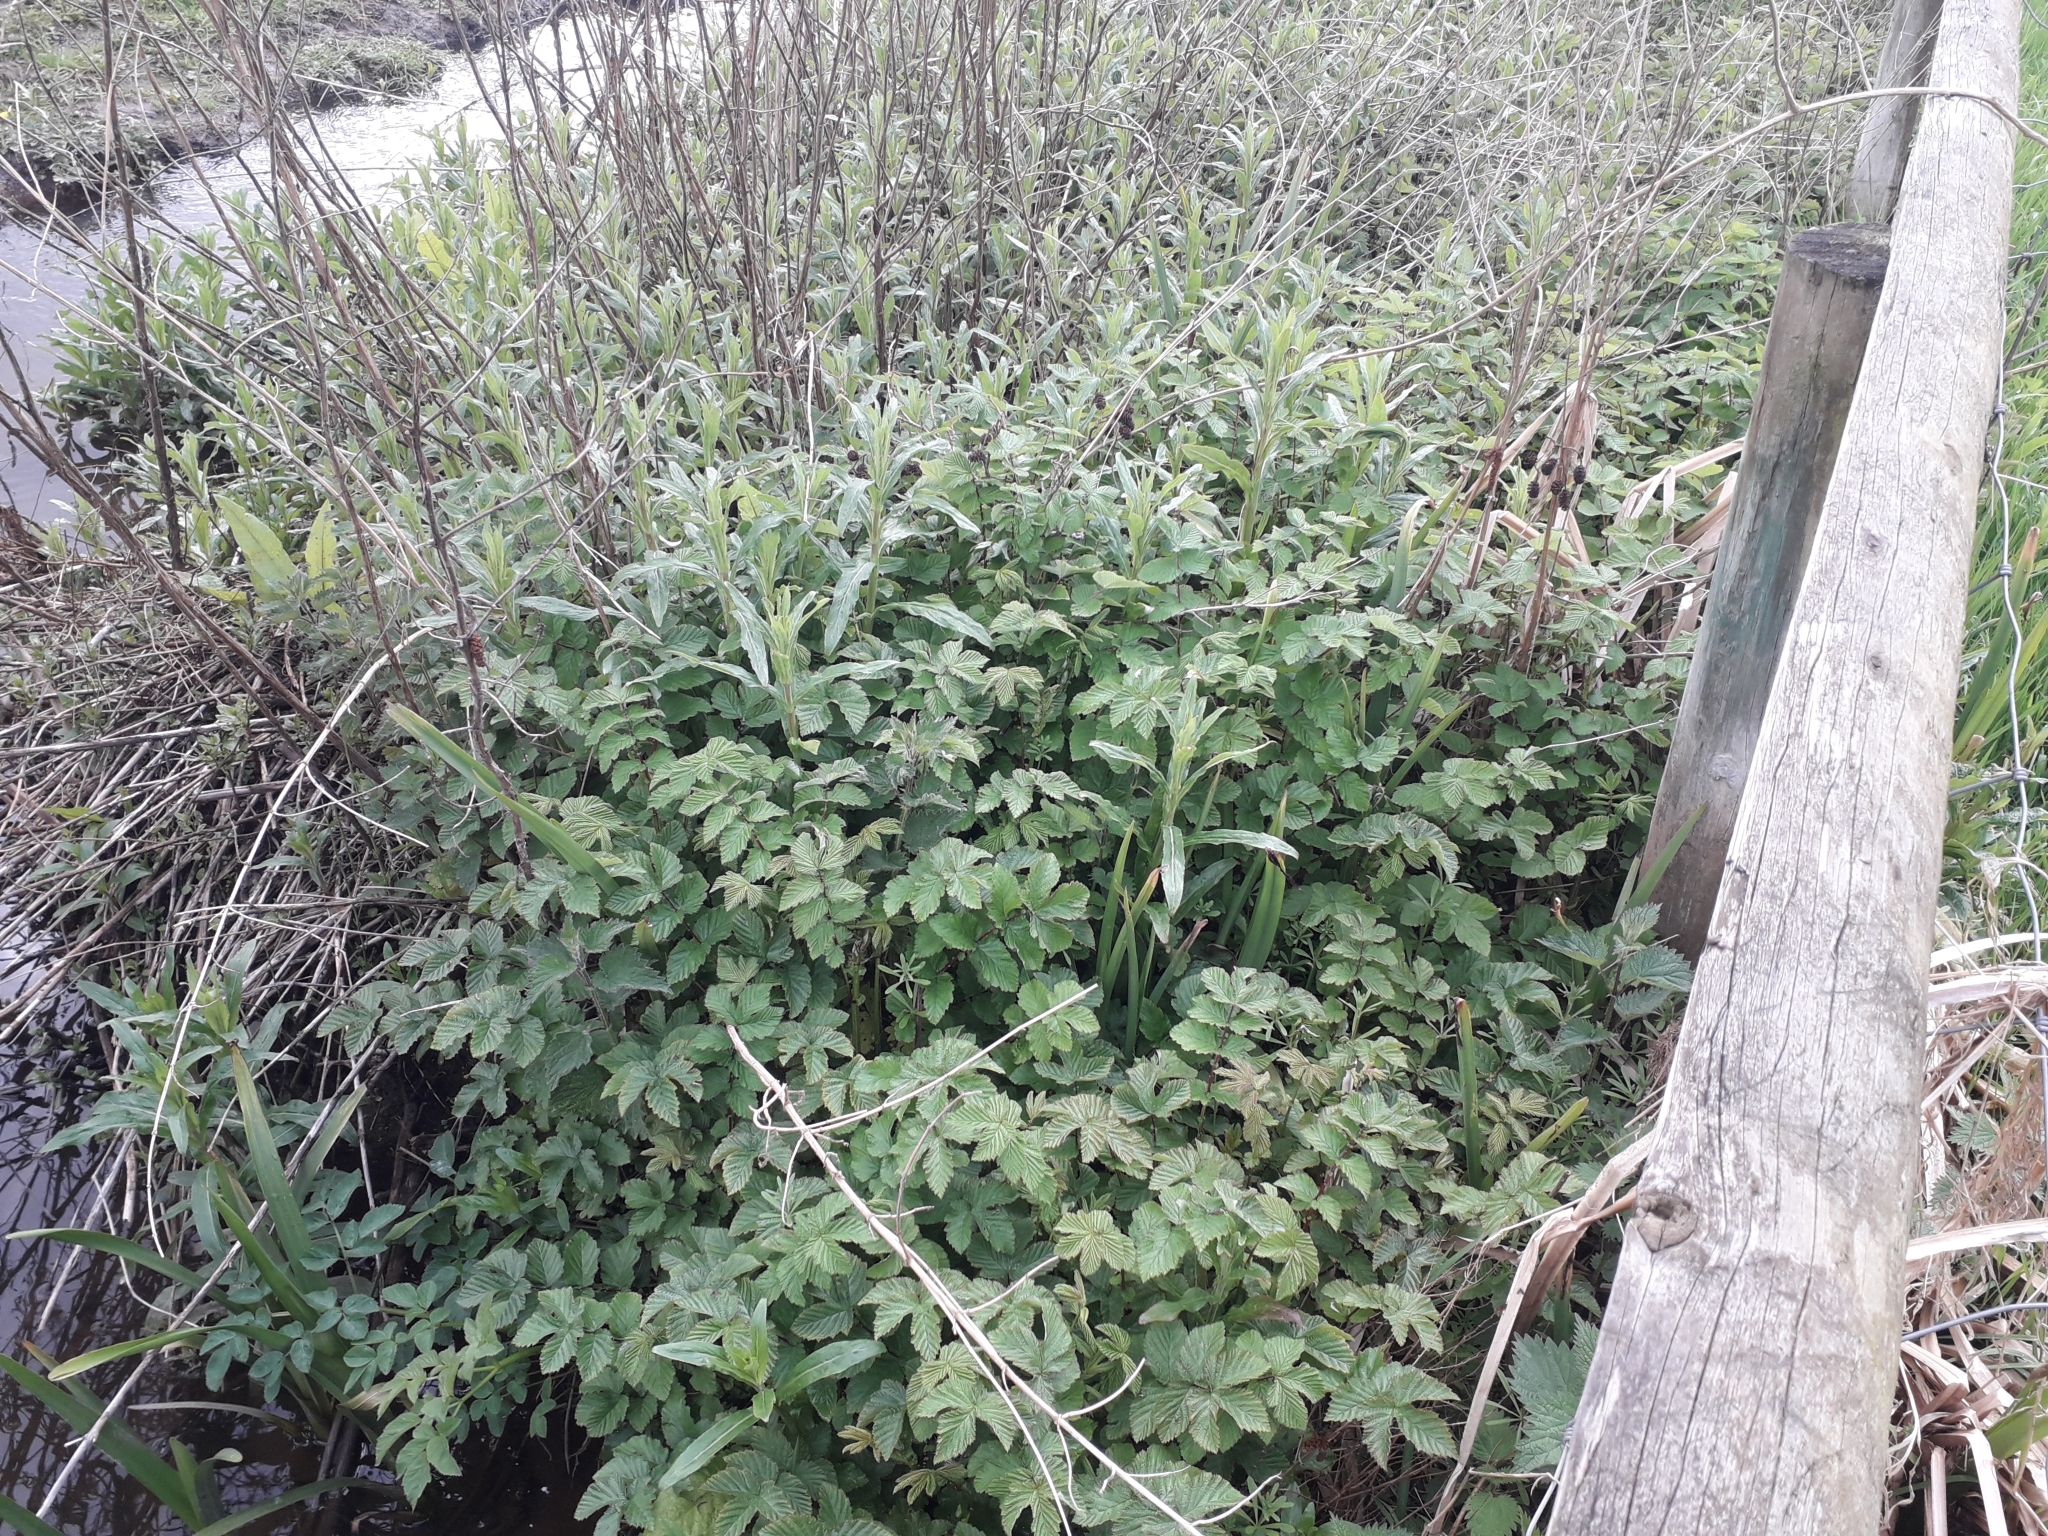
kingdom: Plantae
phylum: Tracheophyta
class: Magnoliopsida
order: Rosales
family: Rosaceae
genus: Filipendula
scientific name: Filipendula ulmaria
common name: Meadowsweet
